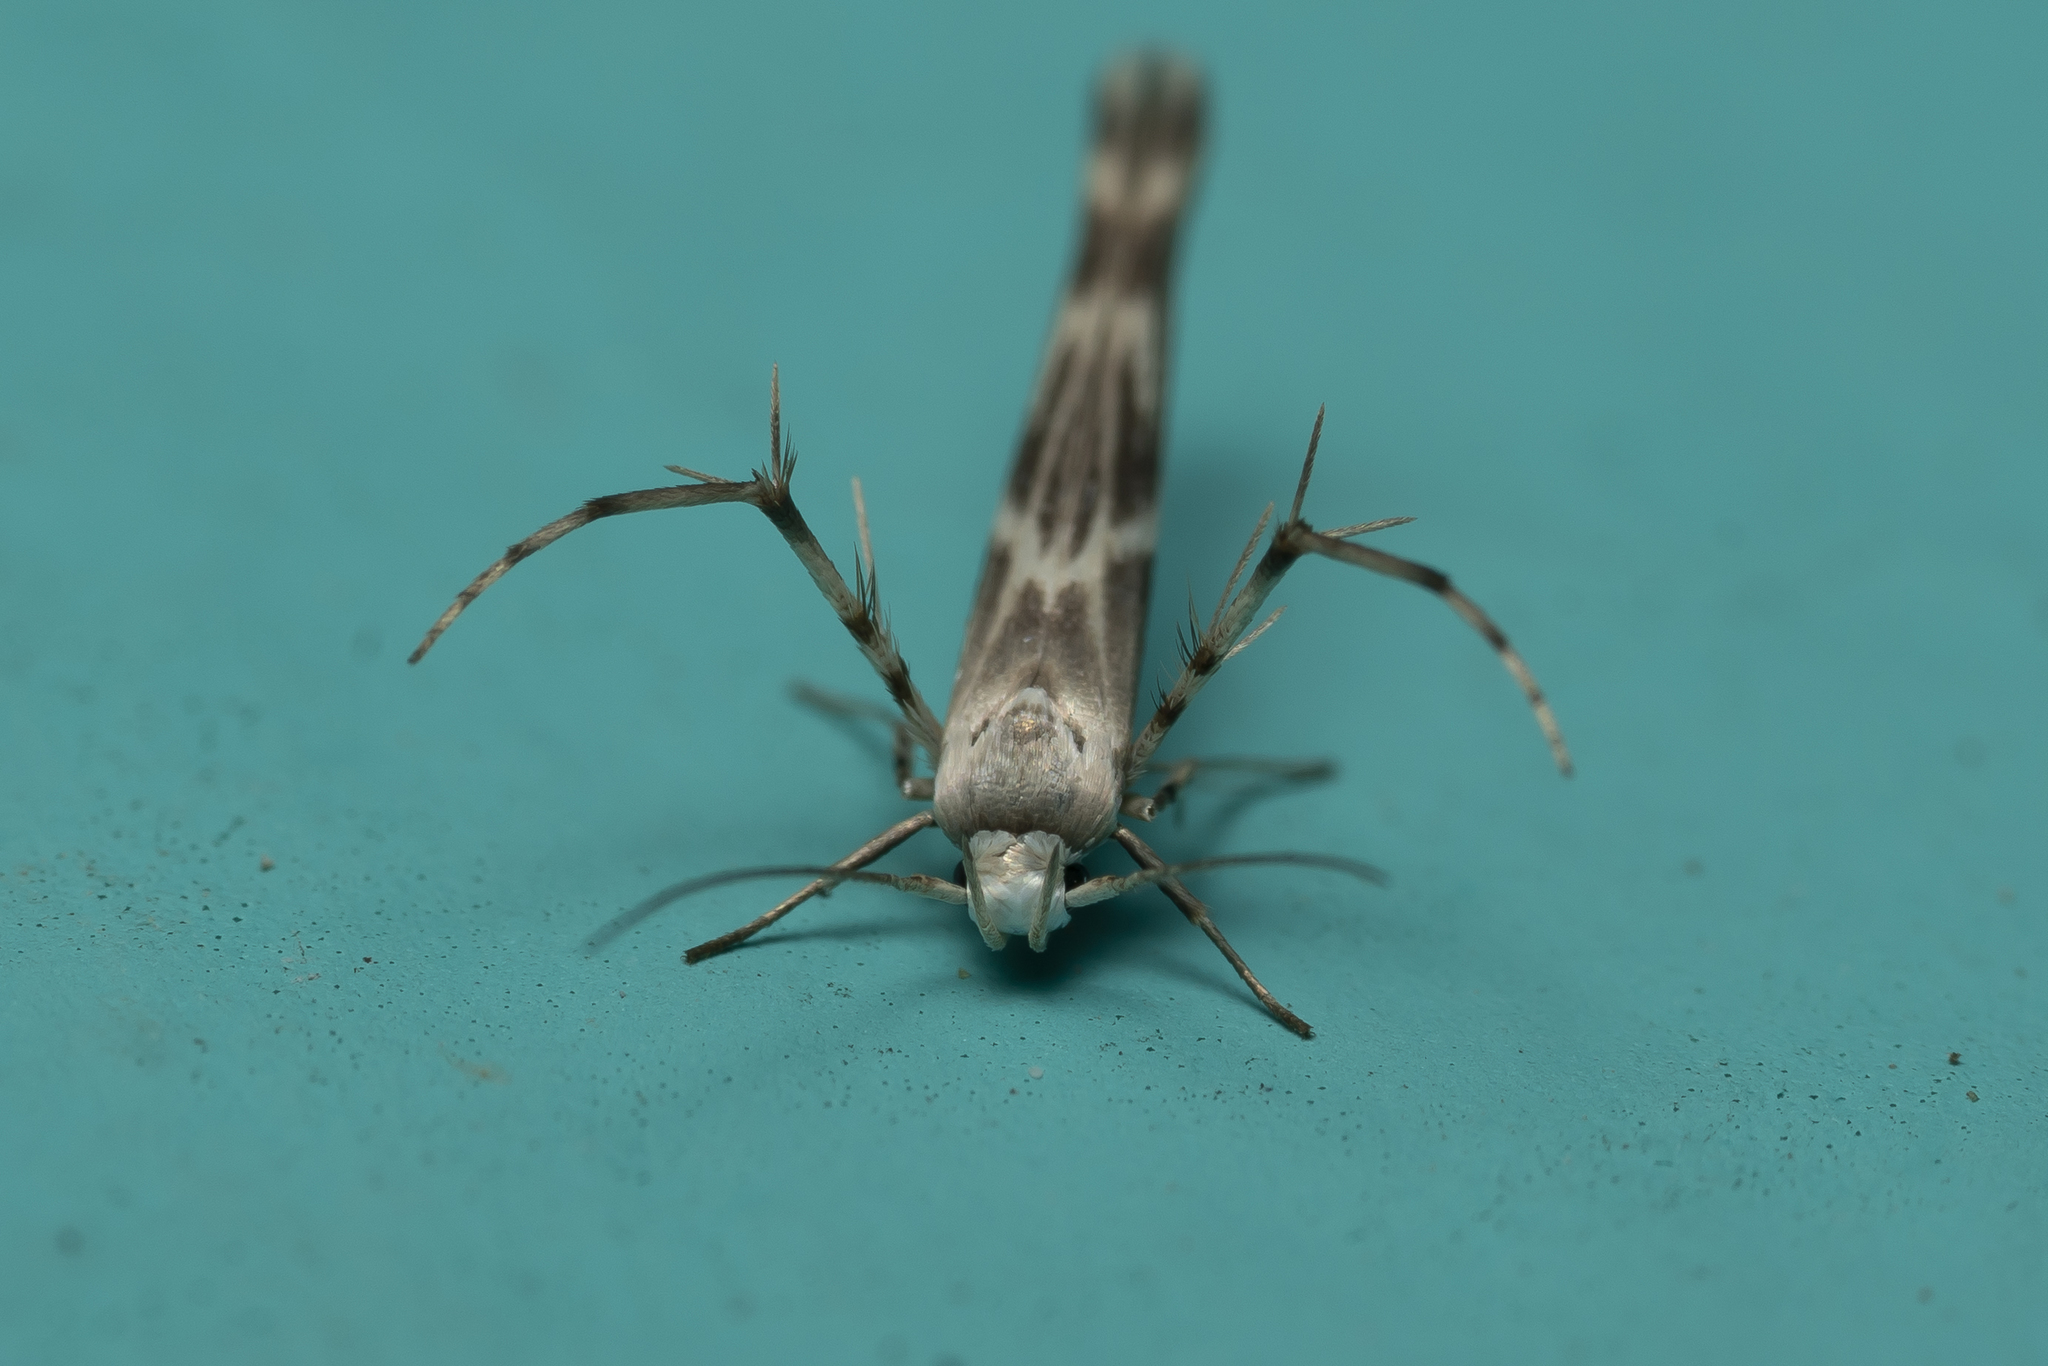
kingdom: Animalia
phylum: Arthropoda
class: Insecta
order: Lepidoptera
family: Gelechiidae
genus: Palumbina
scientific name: Palumbina guerinii
